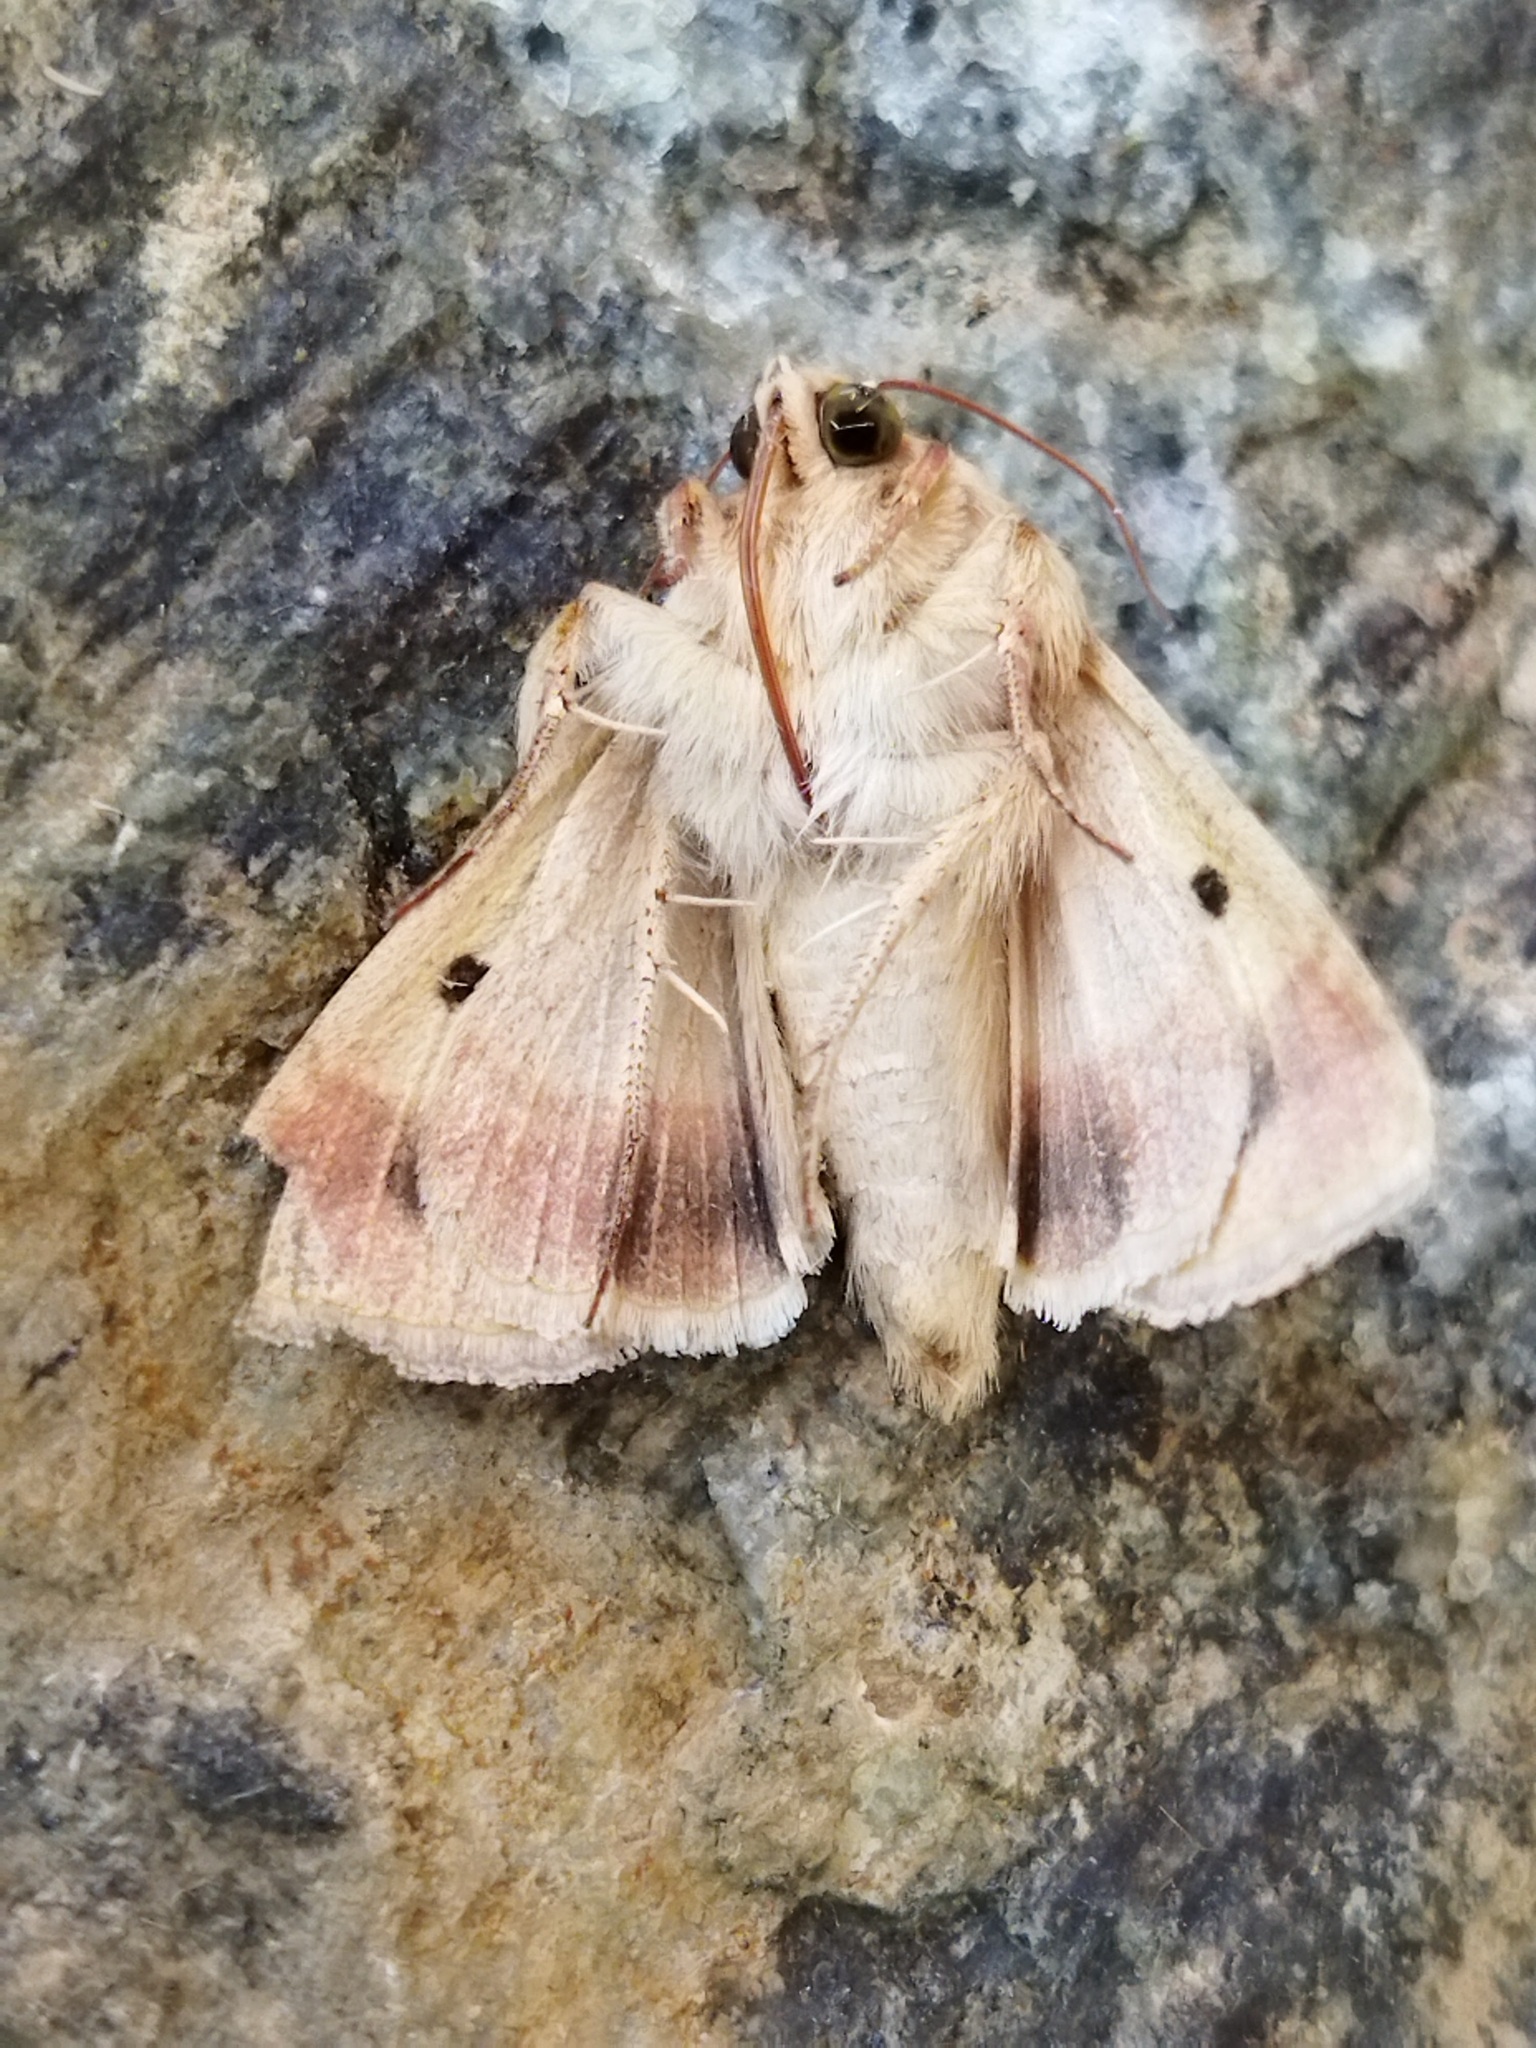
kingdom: Animalia
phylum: Arthropoda
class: Insecta
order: Lepidoptera
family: Noctuidae
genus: Helicoverpa
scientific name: Helicoverpa armigera
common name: Cotton bollworm
